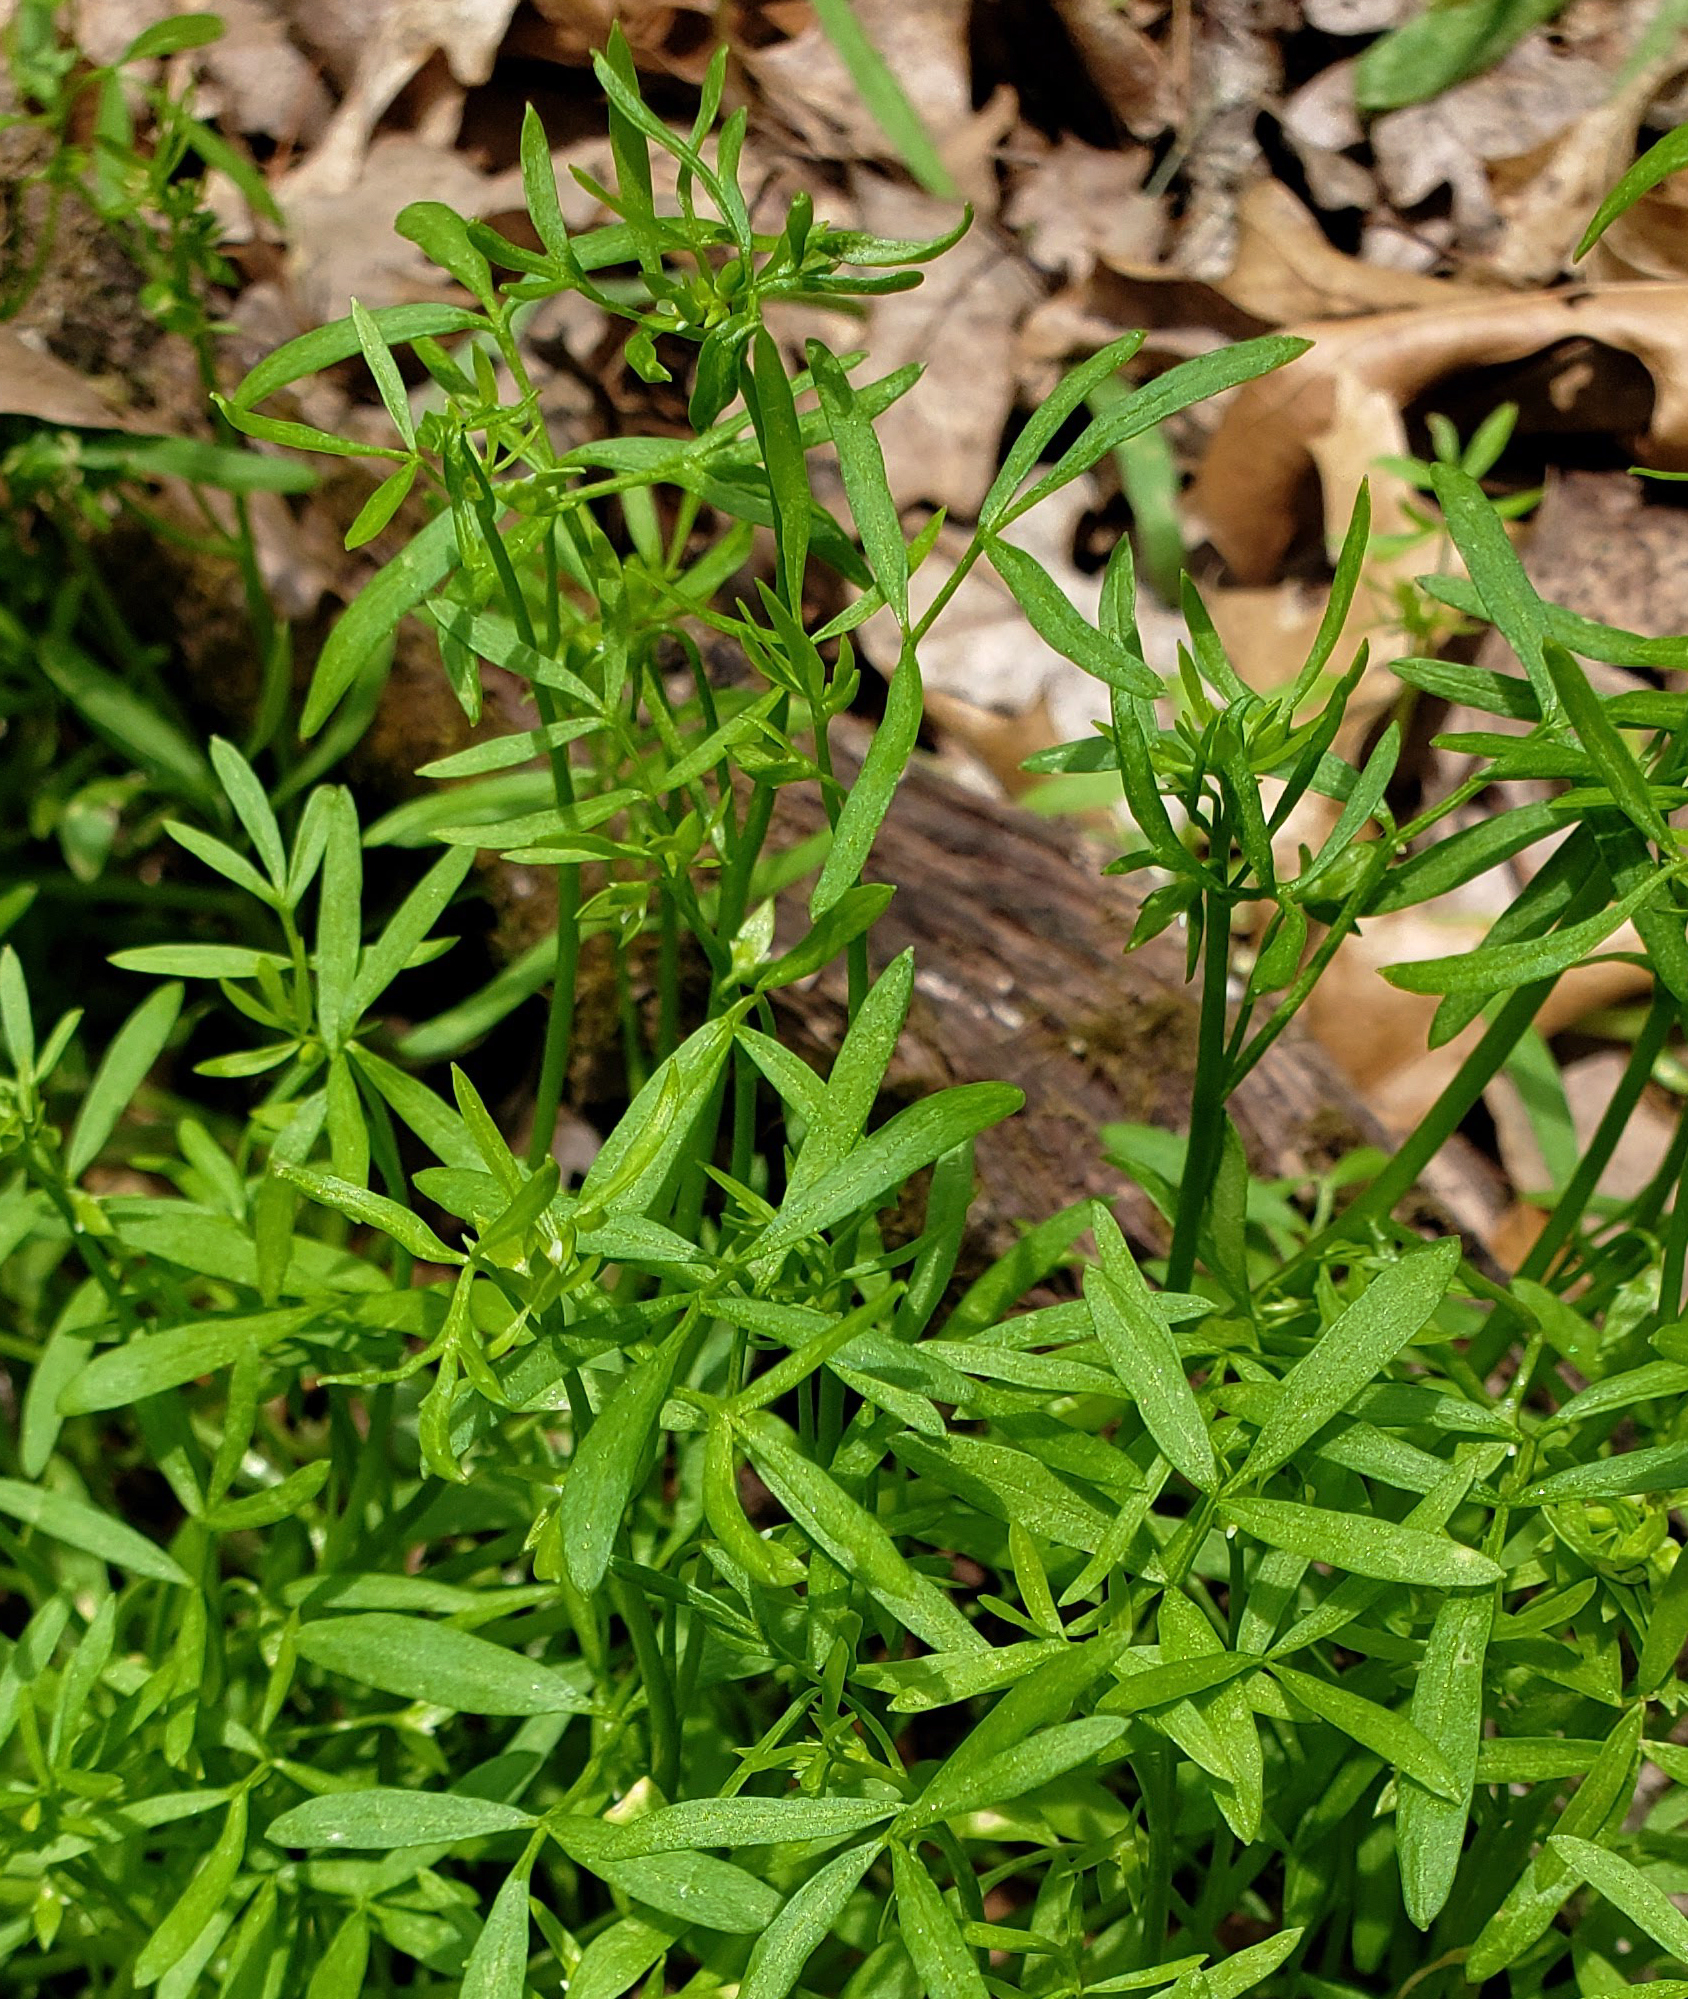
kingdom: Plantae
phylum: Tracheophyta
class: Magnoliopsida
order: Brassicales
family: Limnanthaceae
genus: Floerkea
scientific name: Floerkea proserpinacoides
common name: False mermaid
